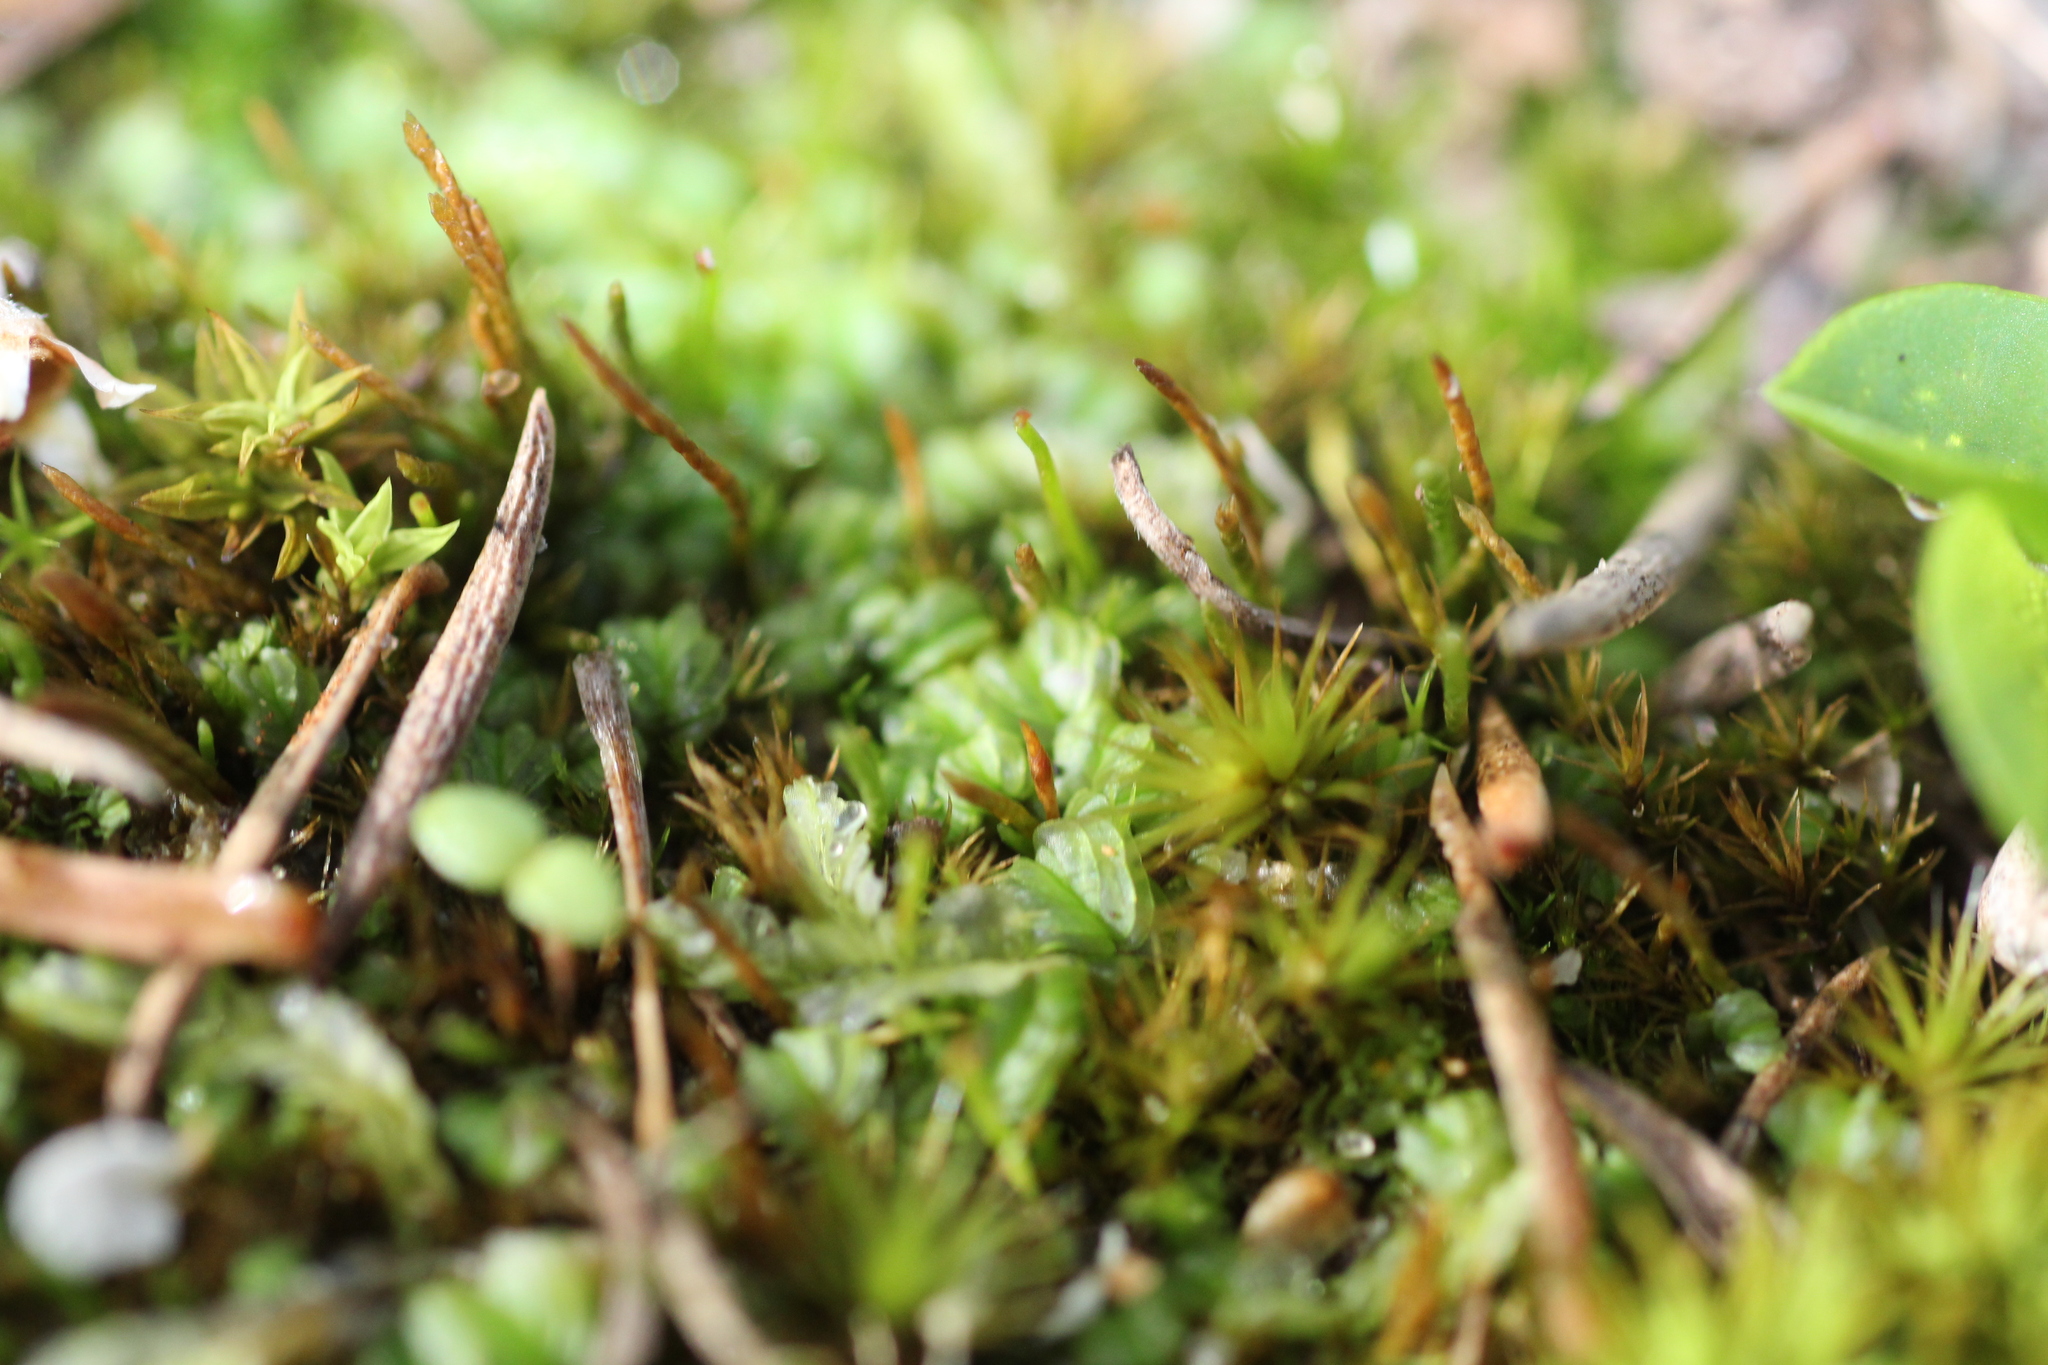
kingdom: Plantae
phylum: Marchantiophyta
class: Jungermanniopsida
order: Jungermanniales
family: Acrobolbaceae
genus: Lethocolea
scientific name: Lethocolea pansa
